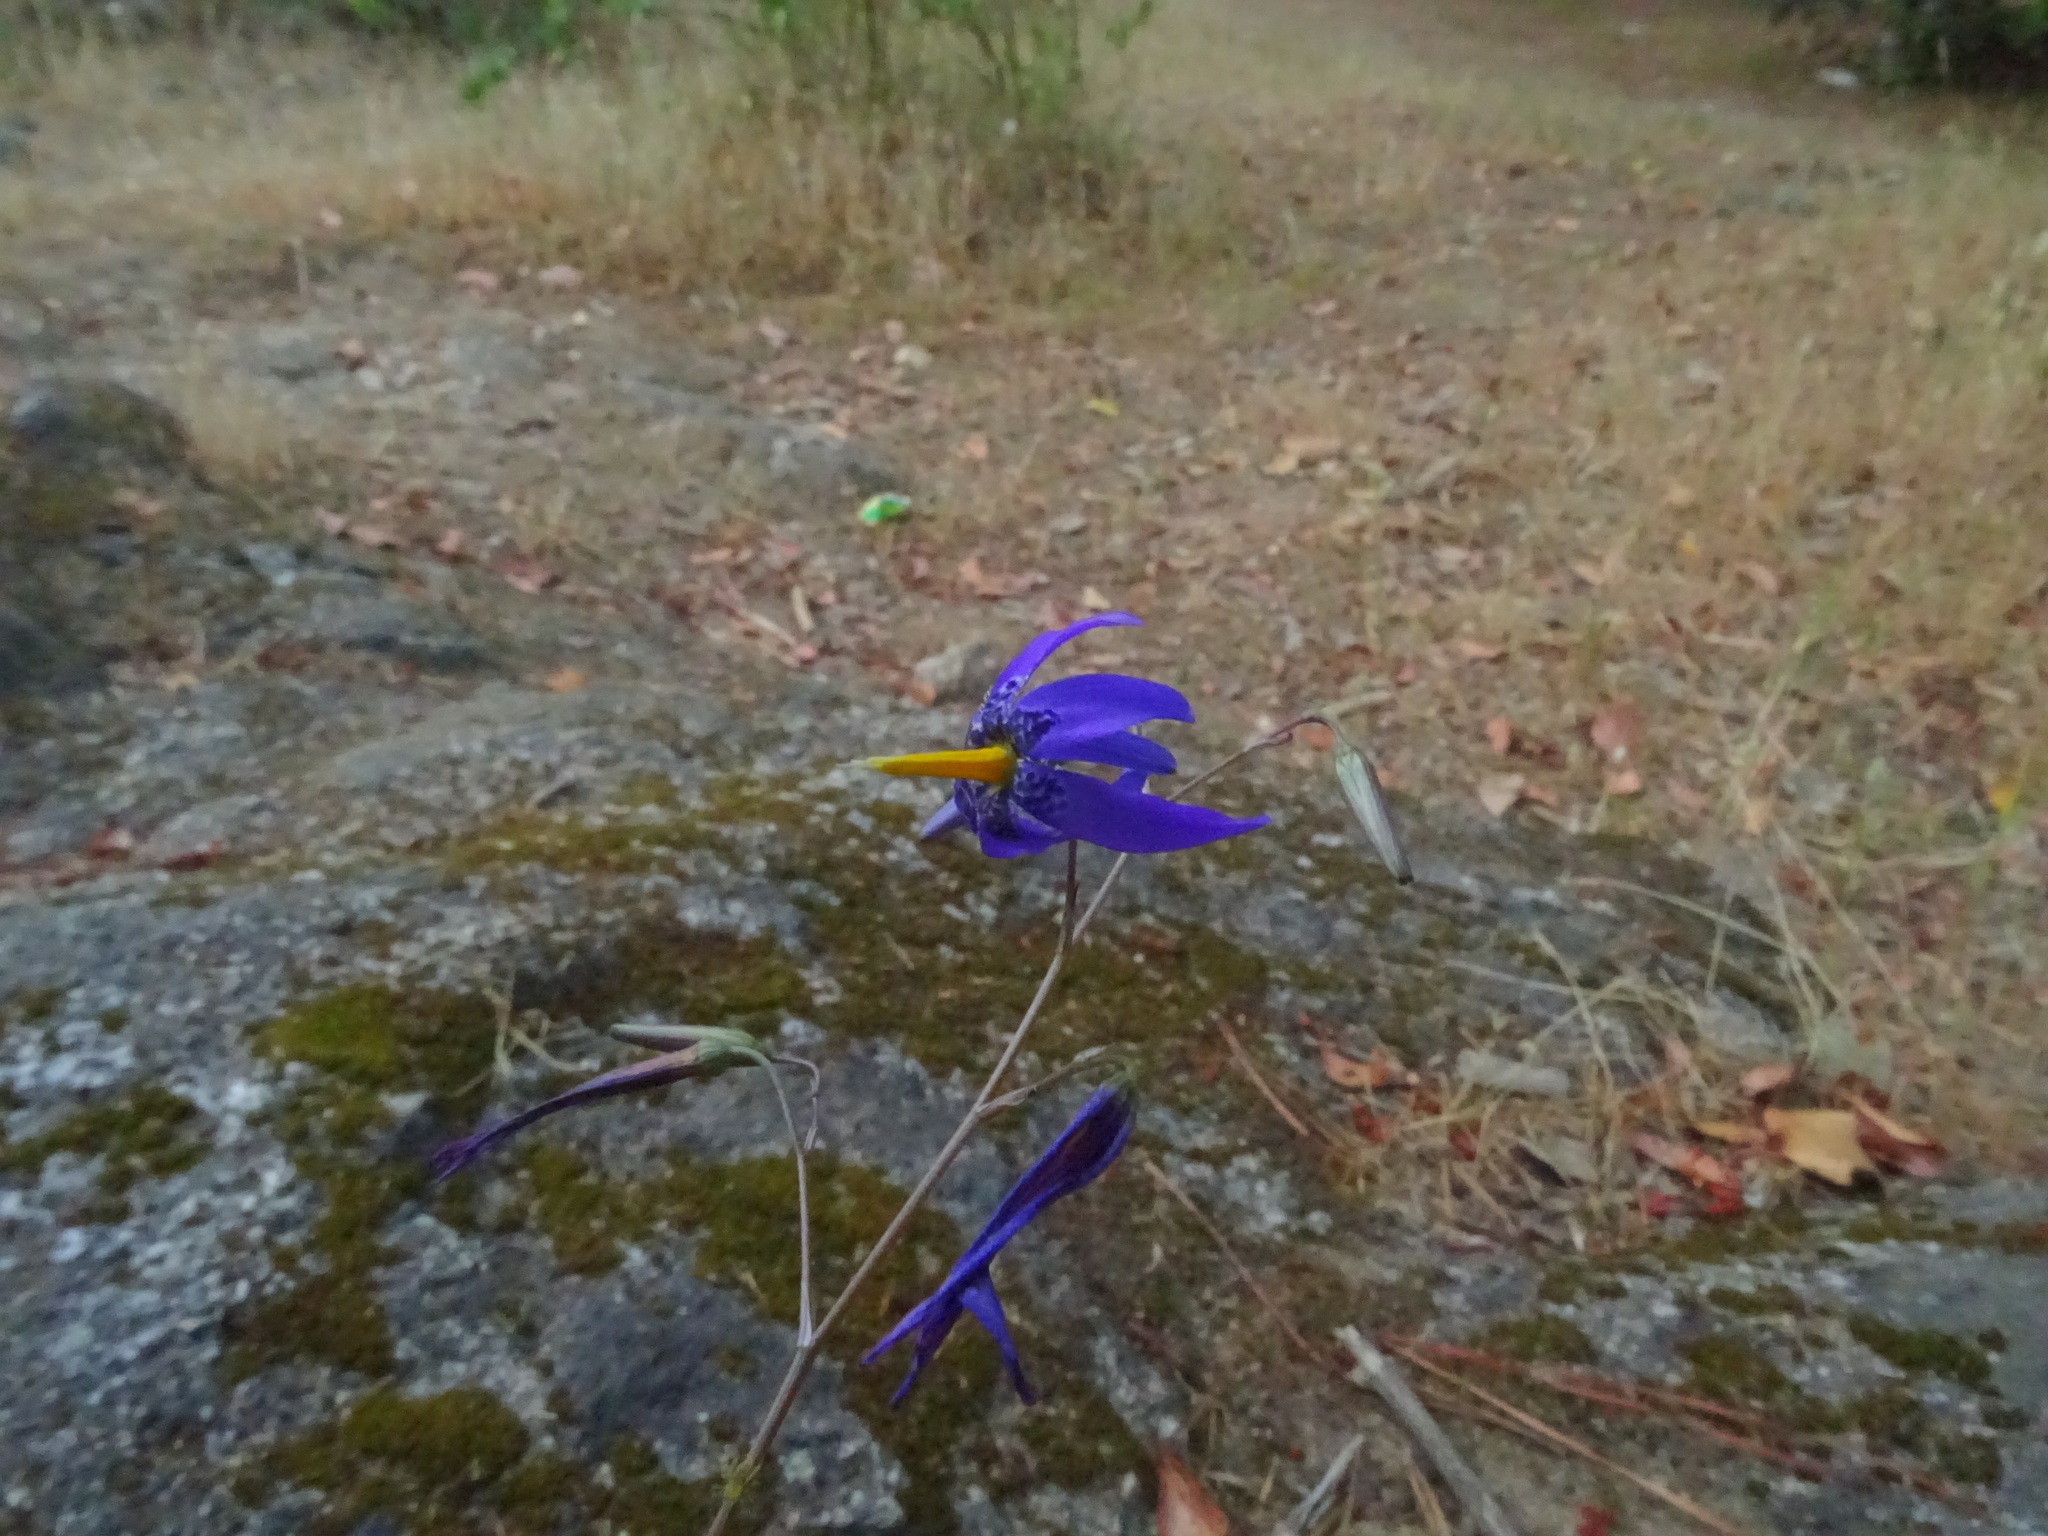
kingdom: Plantae
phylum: Tracheophyta
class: Liliopsida
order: Asparagales
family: Tecophilaeaceae
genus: Conanthera
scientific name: Conanthera bifolia
